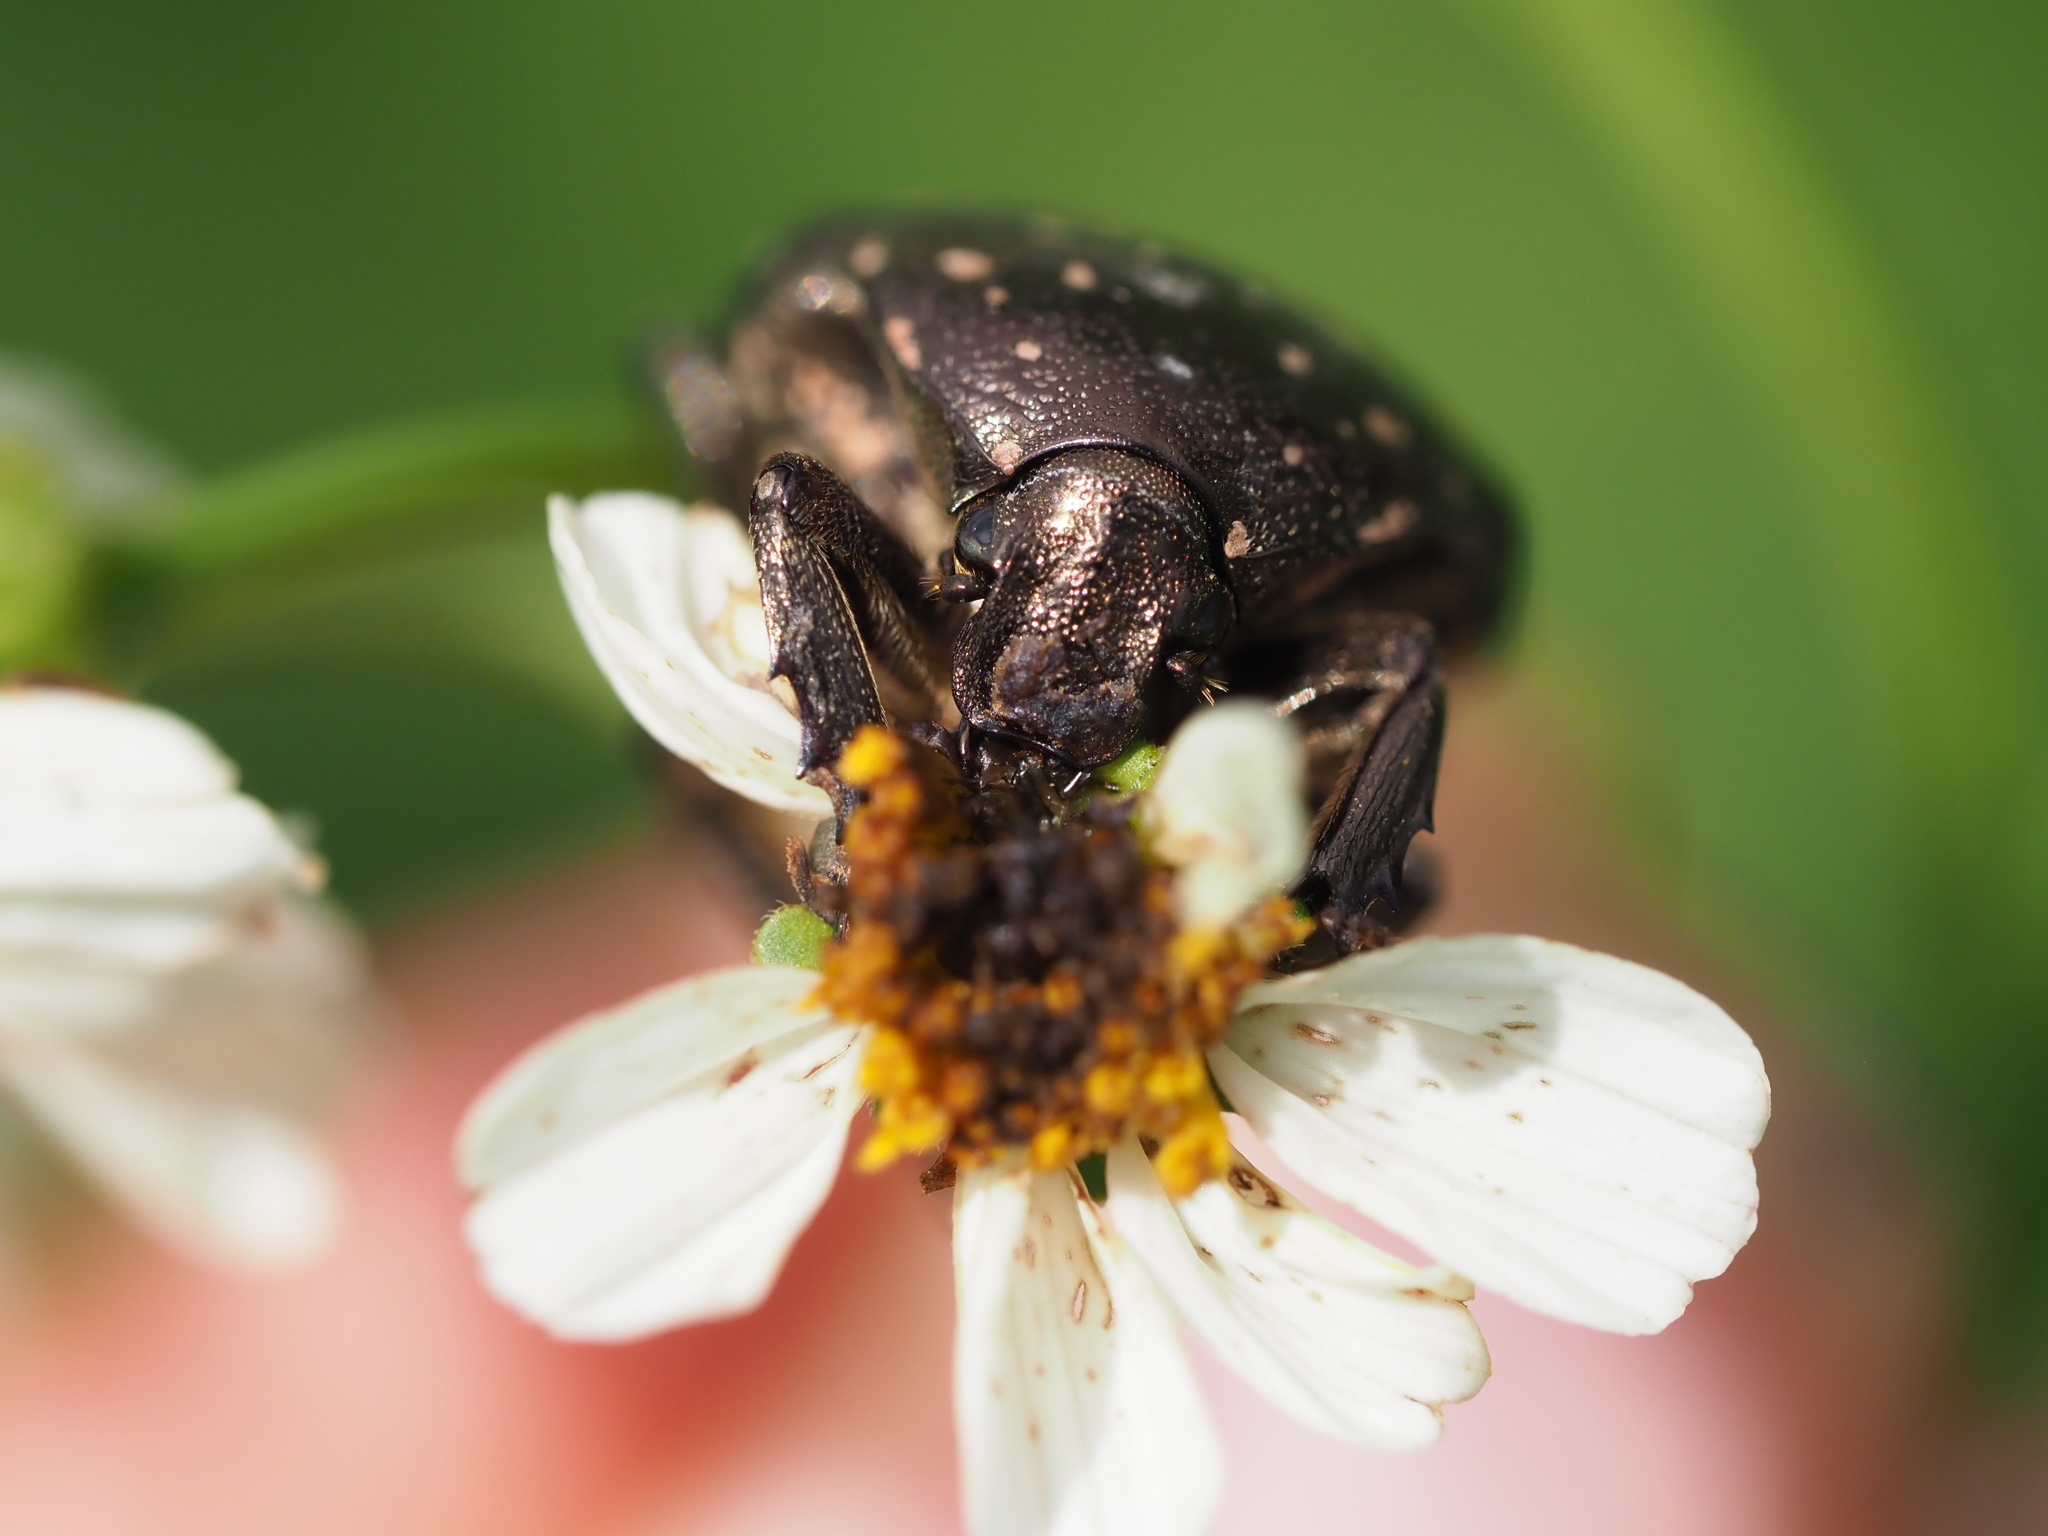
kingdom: Animalia
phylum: Arthropoda
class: Insecta
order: Coleoptera
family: Scarabaeidae
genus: Protaetia
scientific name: Protaetia orientalis
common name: Oriental flower beetle
